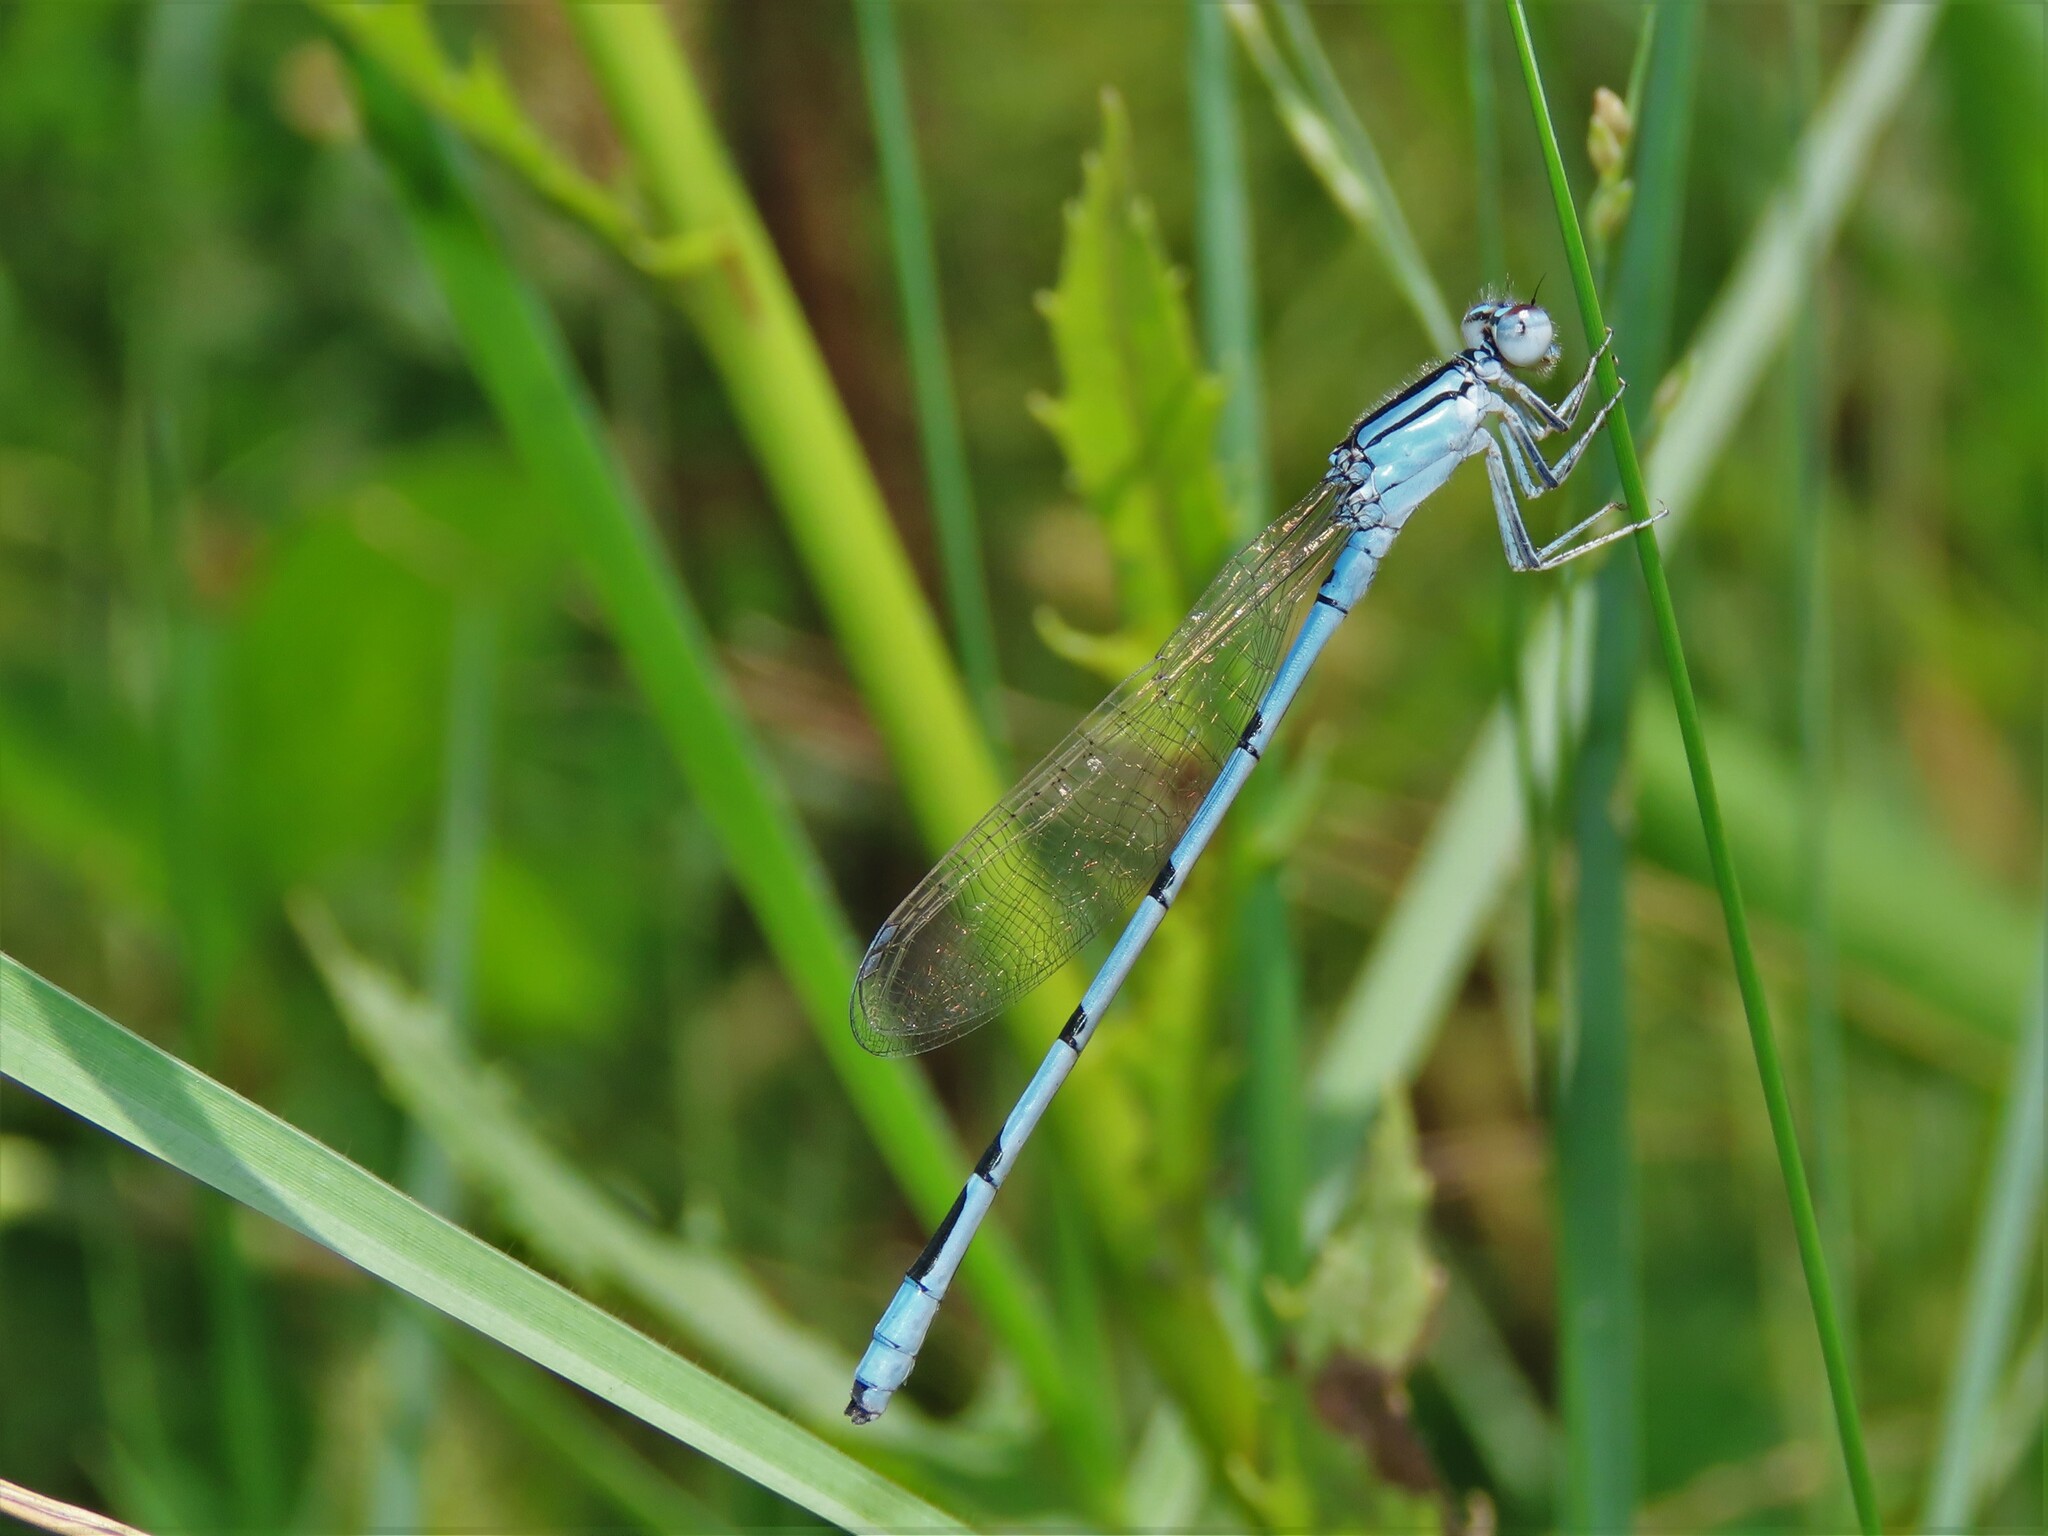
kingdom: Animalia
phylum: Arthropoda
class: Insecta
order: Odonata
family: Coenagrionidae
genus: Enallagma
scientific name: Enallagma doubledayi
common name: Atlantic bluet
